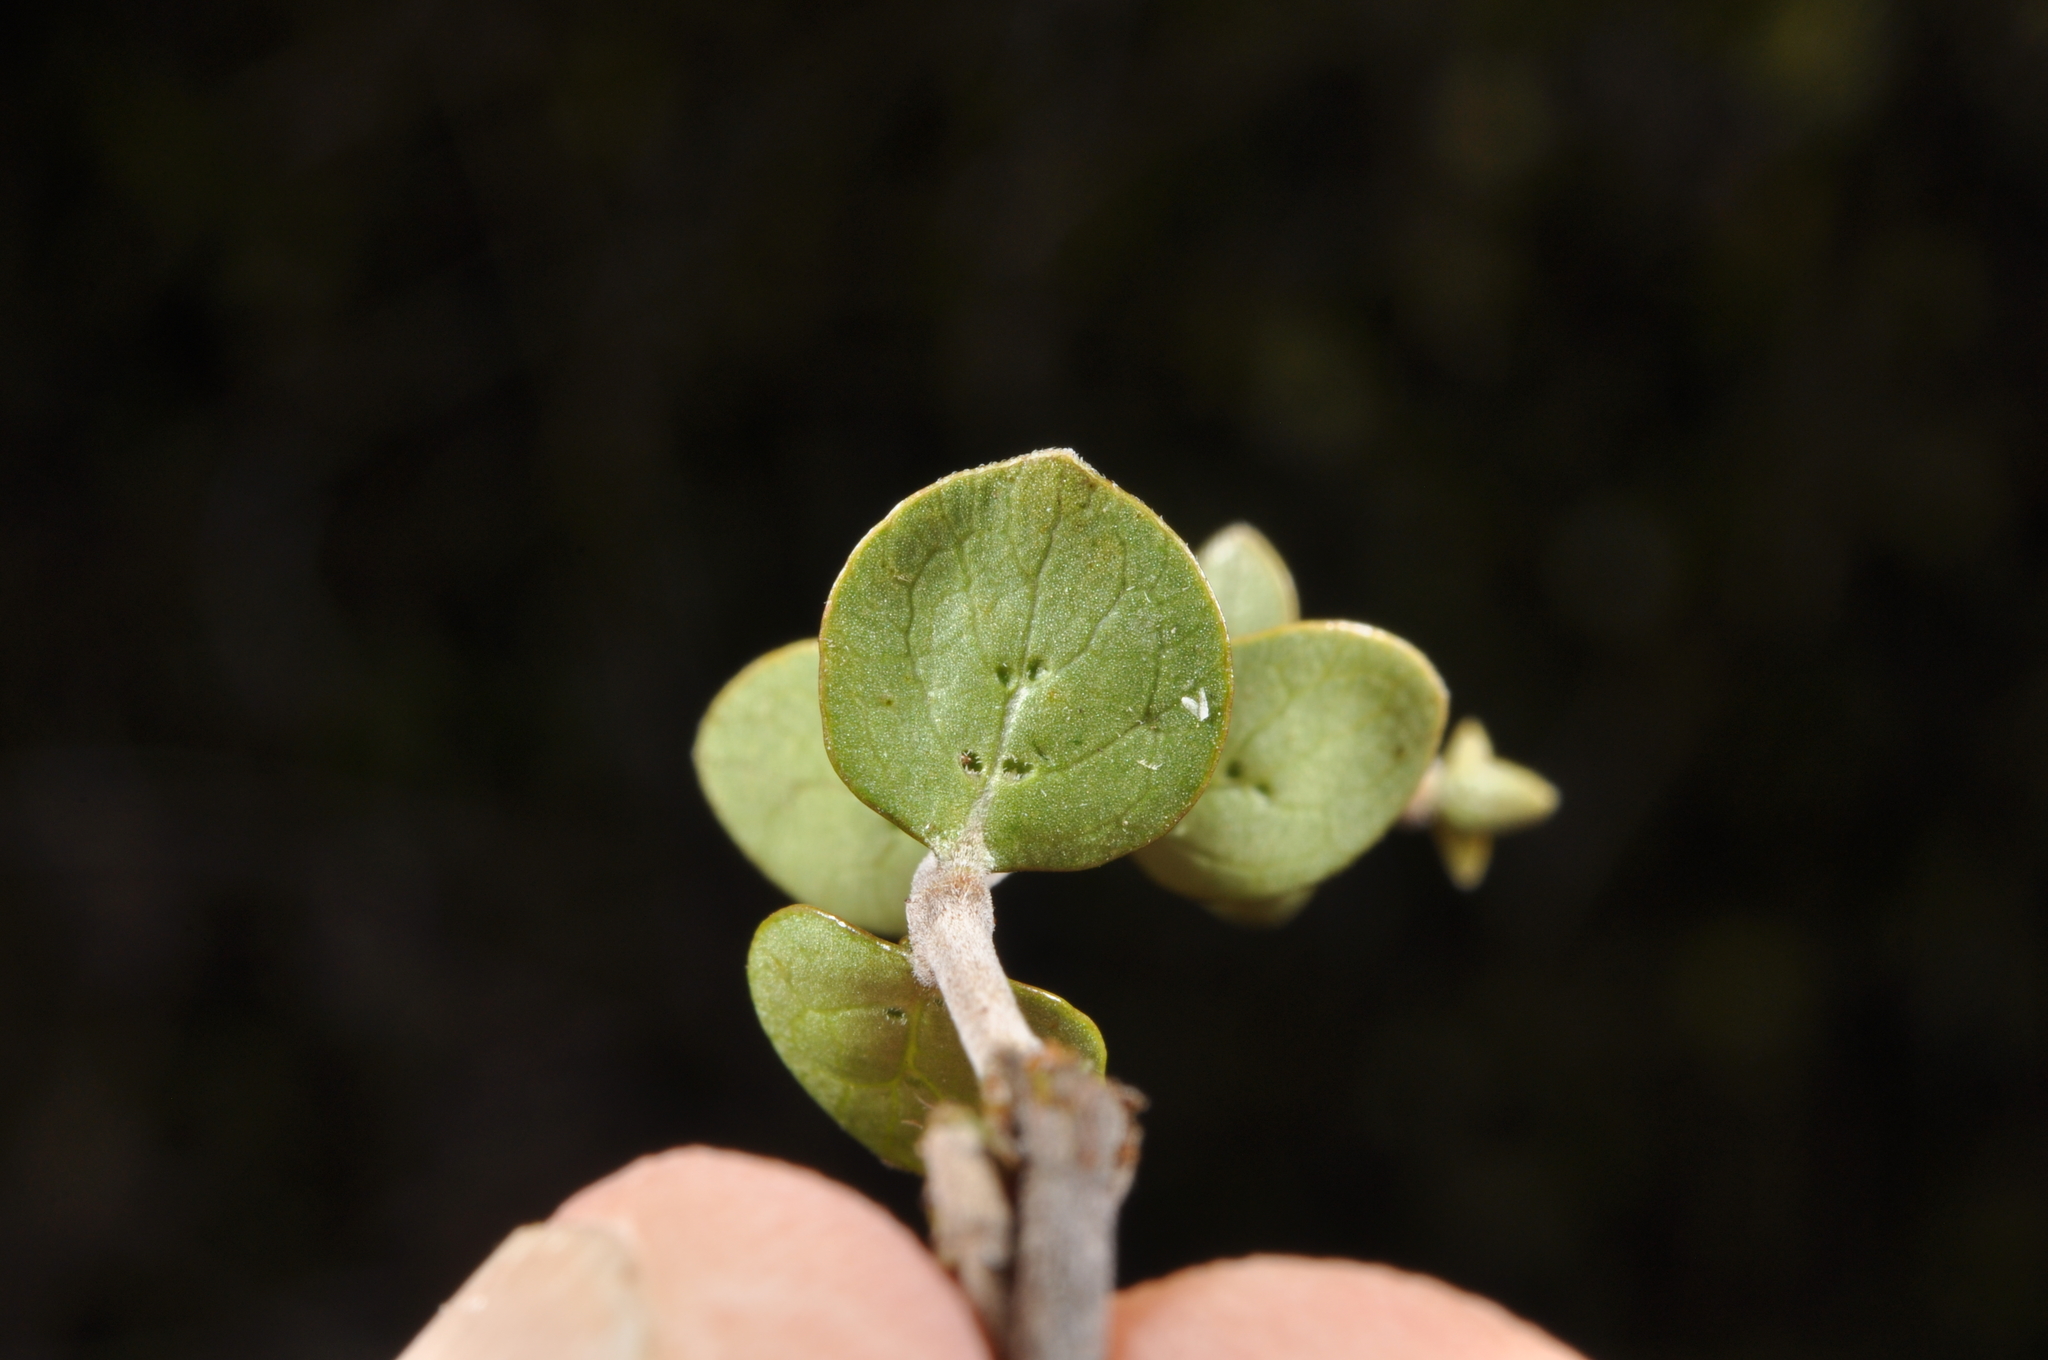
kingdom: Plantae
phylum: Tracheophyta
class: Magnoliopsida
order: Gentianales
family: Rubiaceae
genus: Coprosma
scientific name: Coprosma rhamnoides
